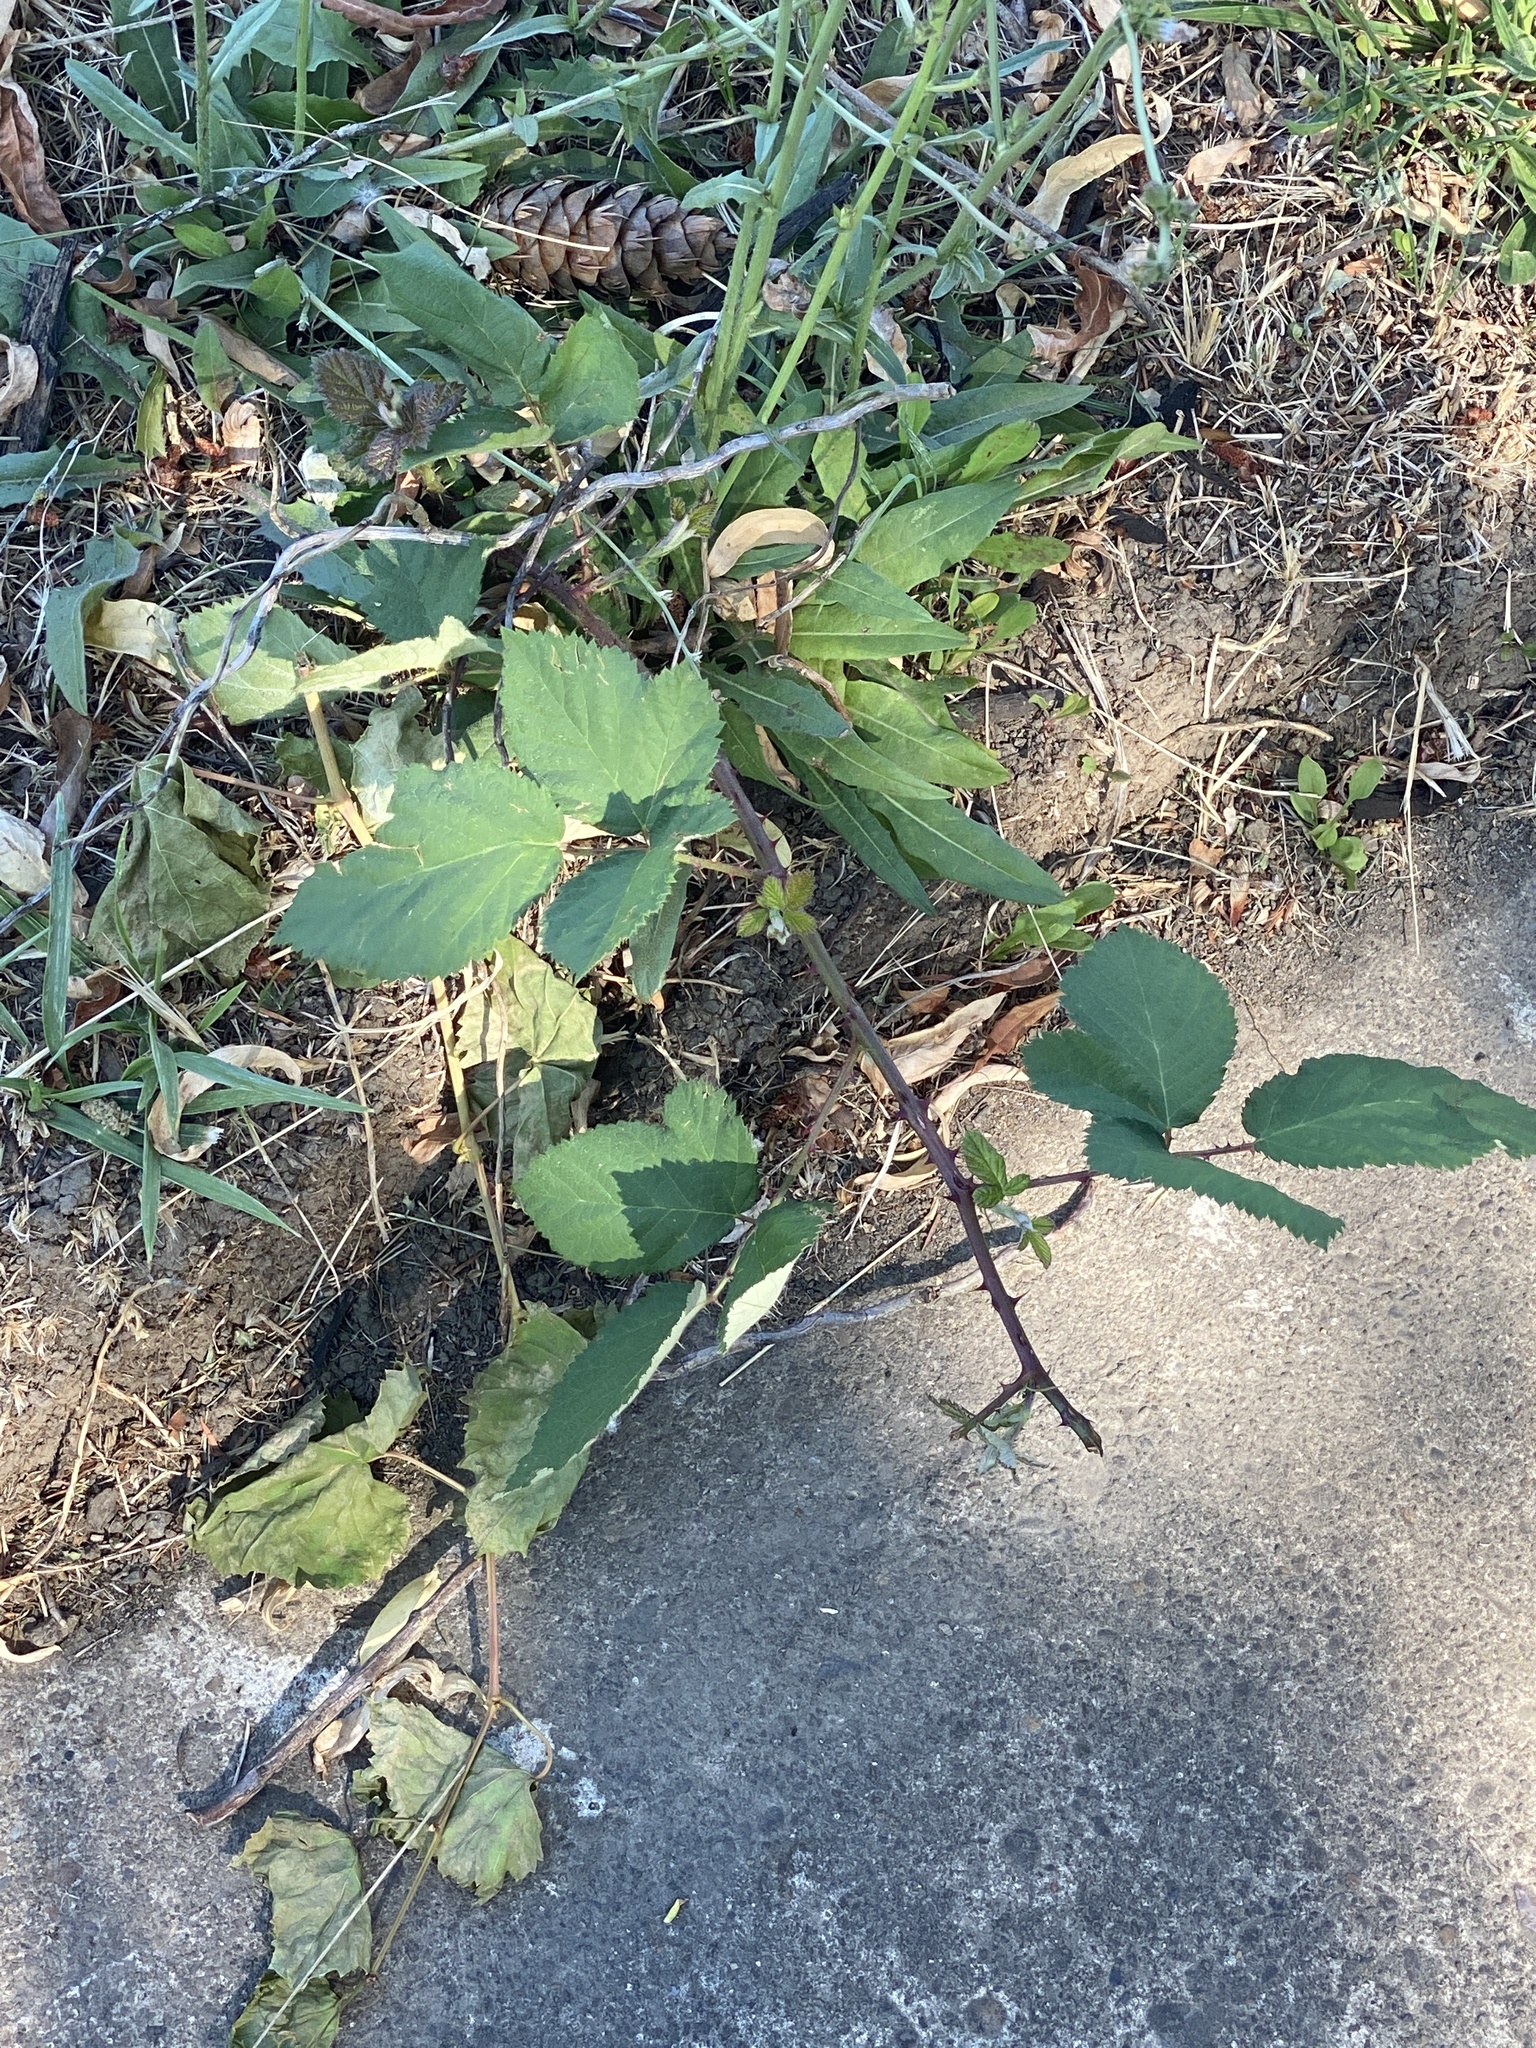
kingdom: Plantae
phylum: Tracheophyta
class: Magnoliopsida
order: Rosales
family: Rosaceae
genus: Rubus
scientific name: Rubus bifrons
